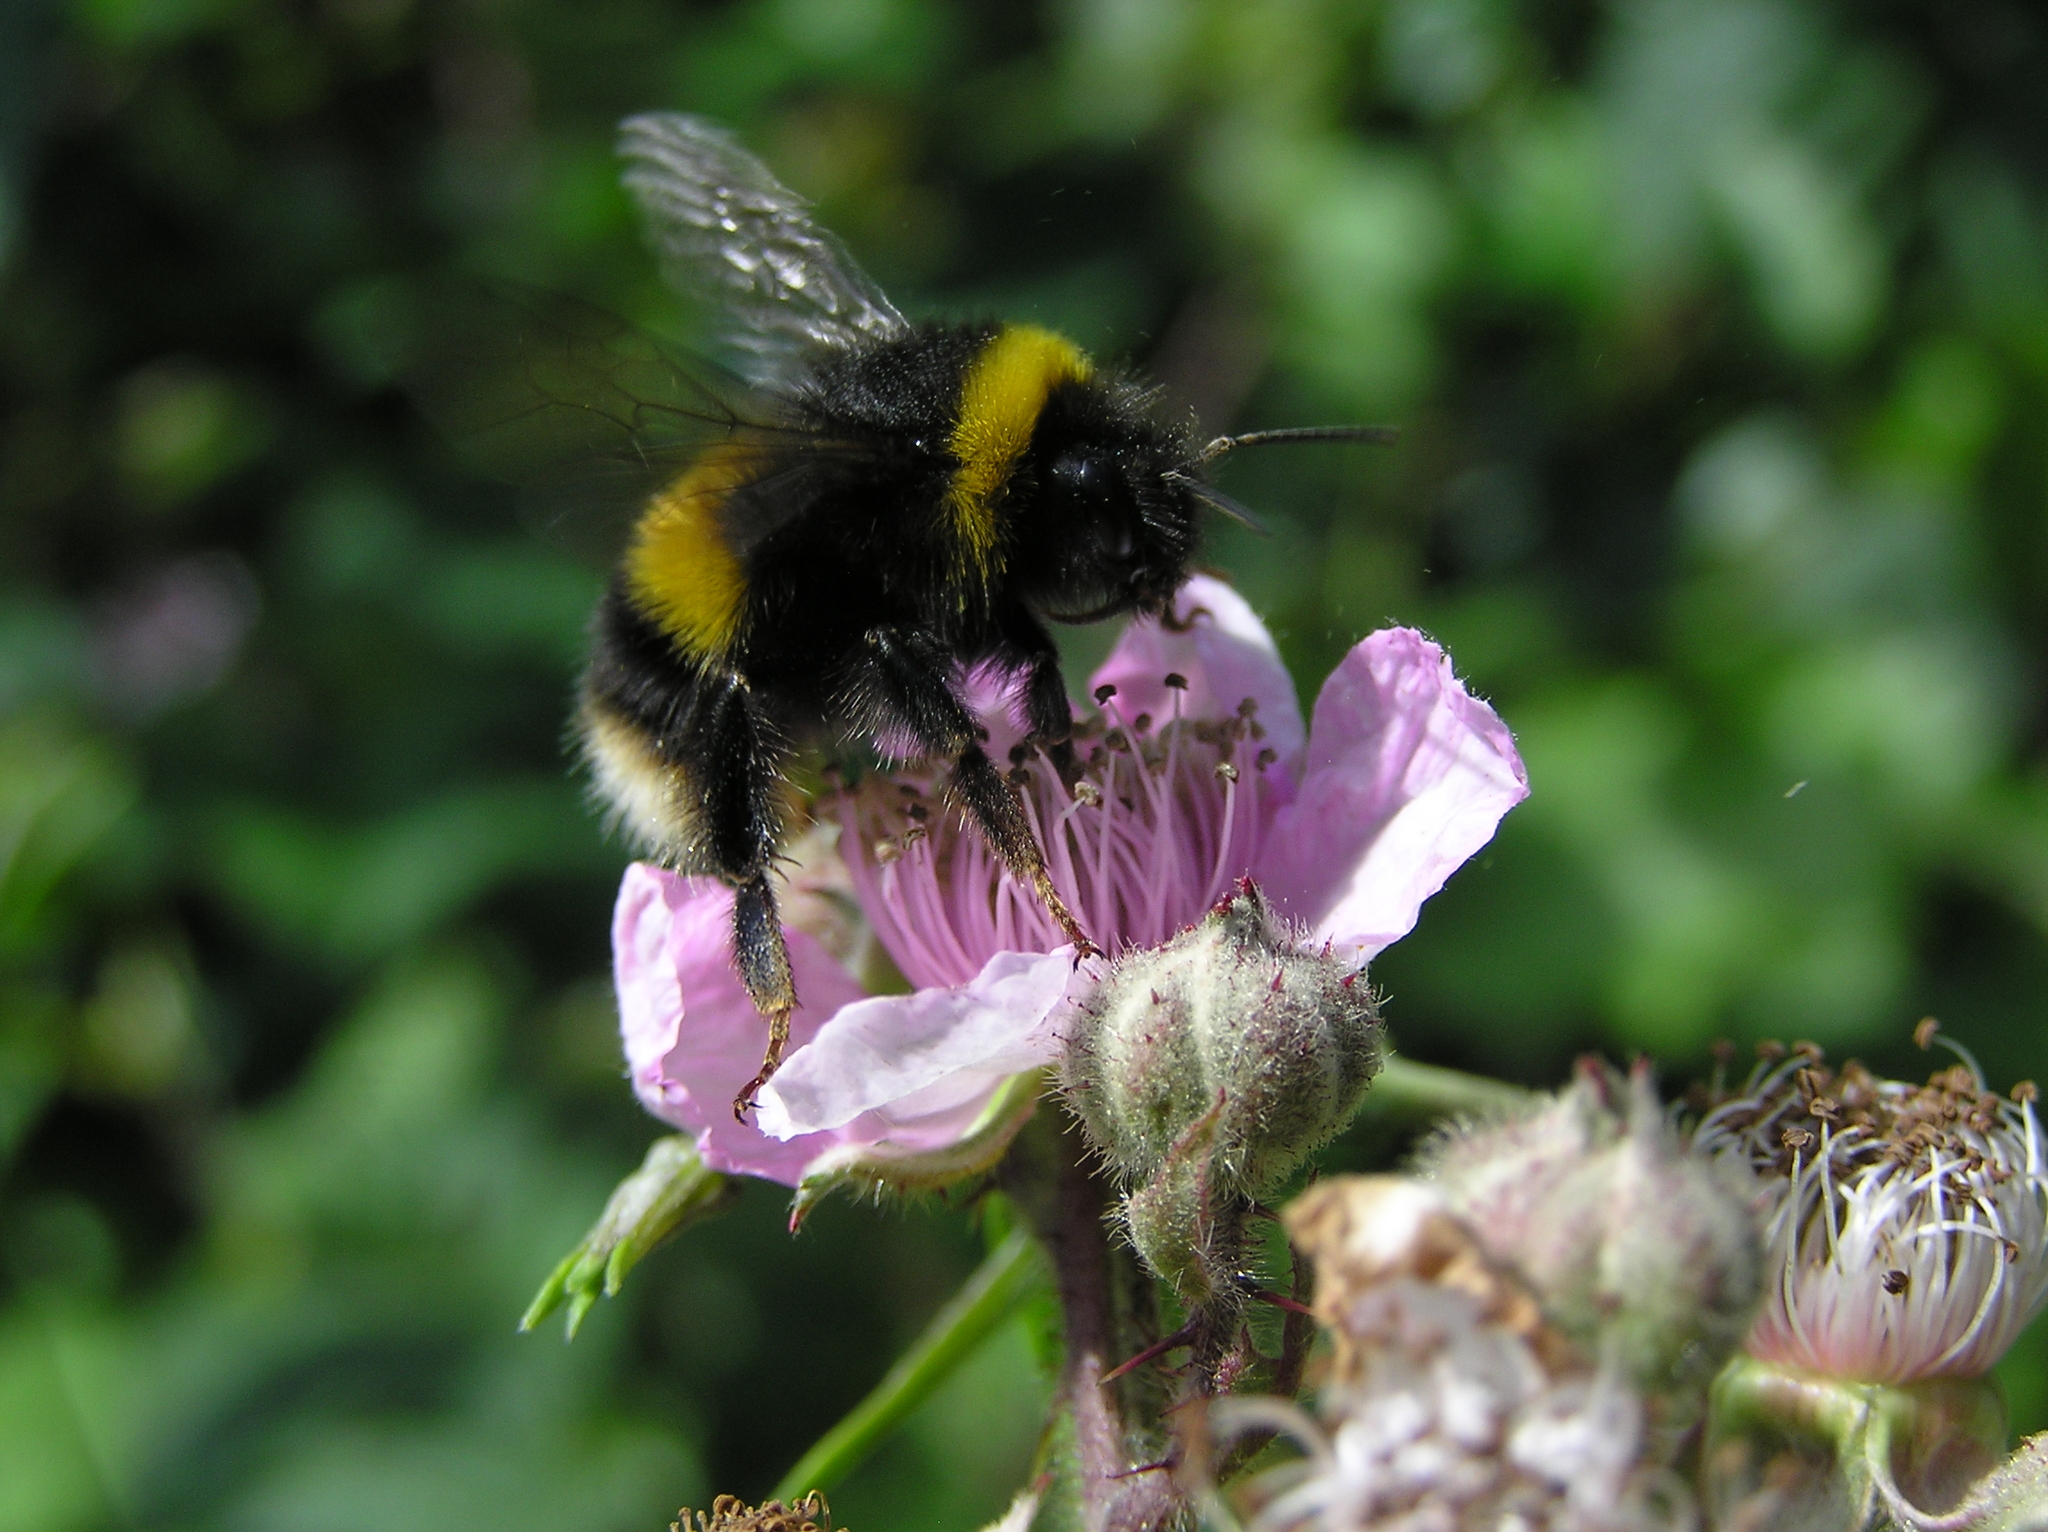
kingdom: Animalia
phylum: Arthropoda
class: Insecta
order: Hymenoptera
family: Apidae
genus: Bombus
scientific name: Bombus terrestris
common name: Buff-tailed bumblebee
